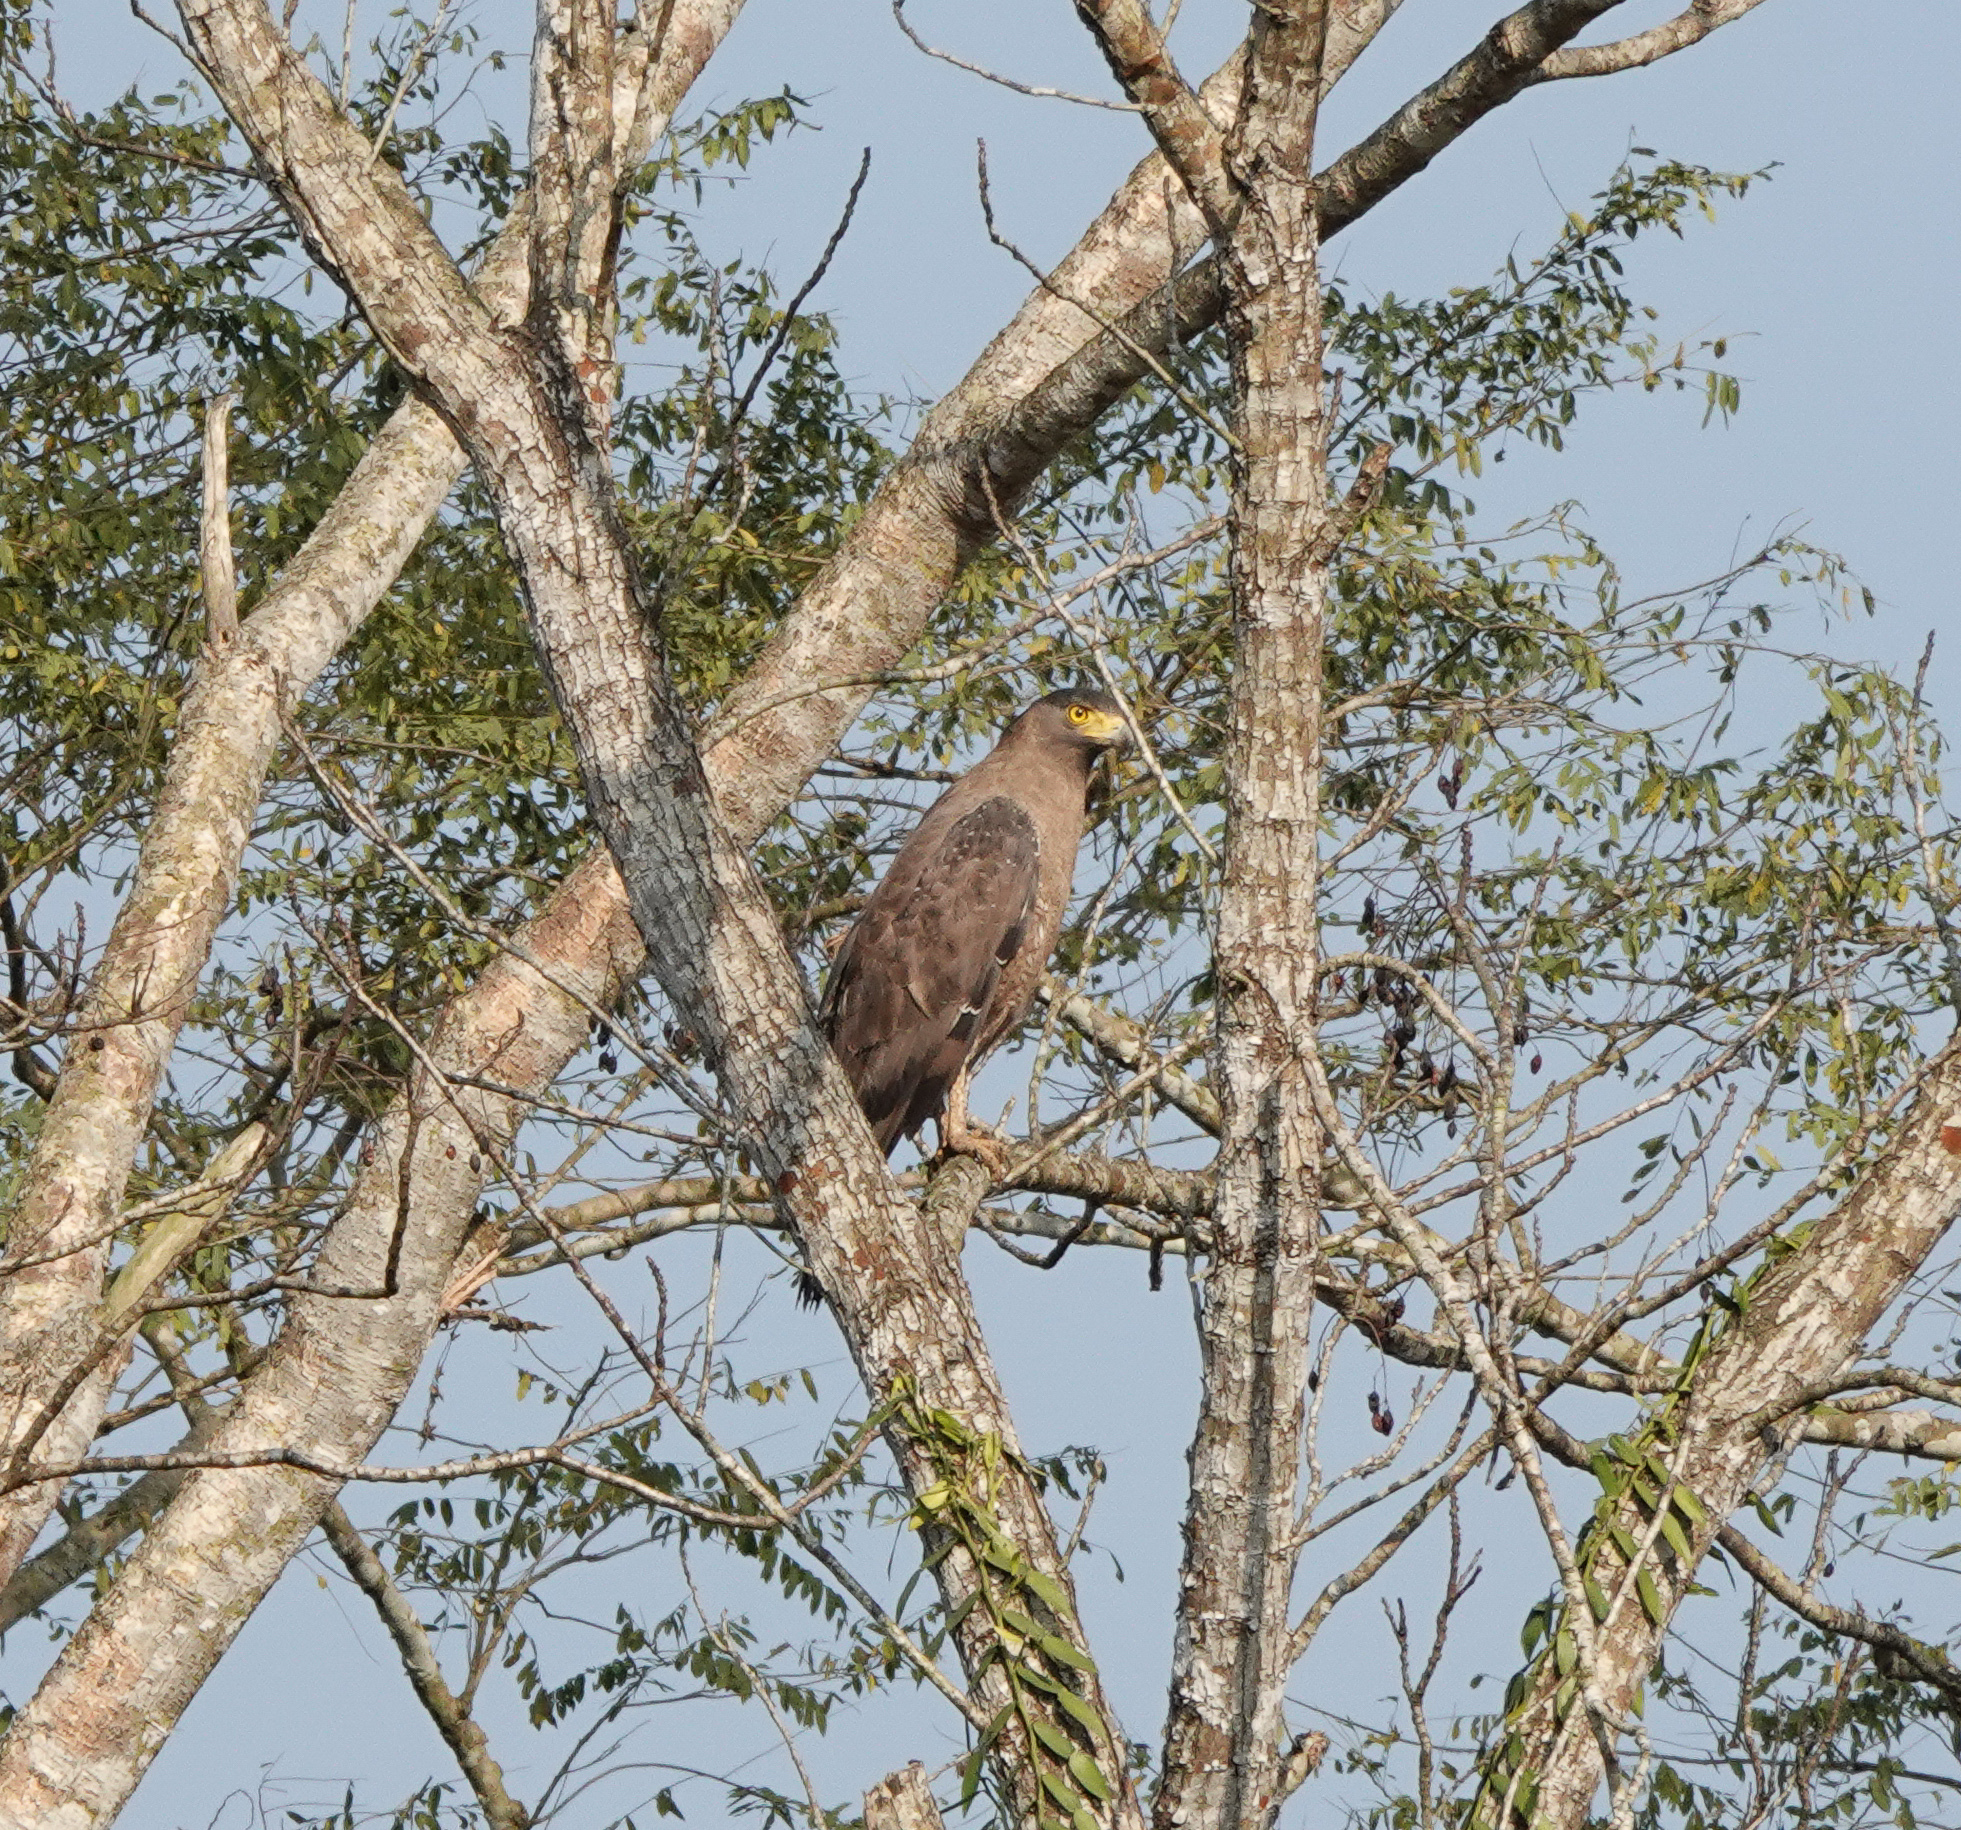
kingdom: Animalia
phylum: Chordata
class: Aves
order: Accipitriformes
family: Accipitridae
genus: Spilornis
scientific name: Spilornis cheela
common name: Crested serpent eagle
